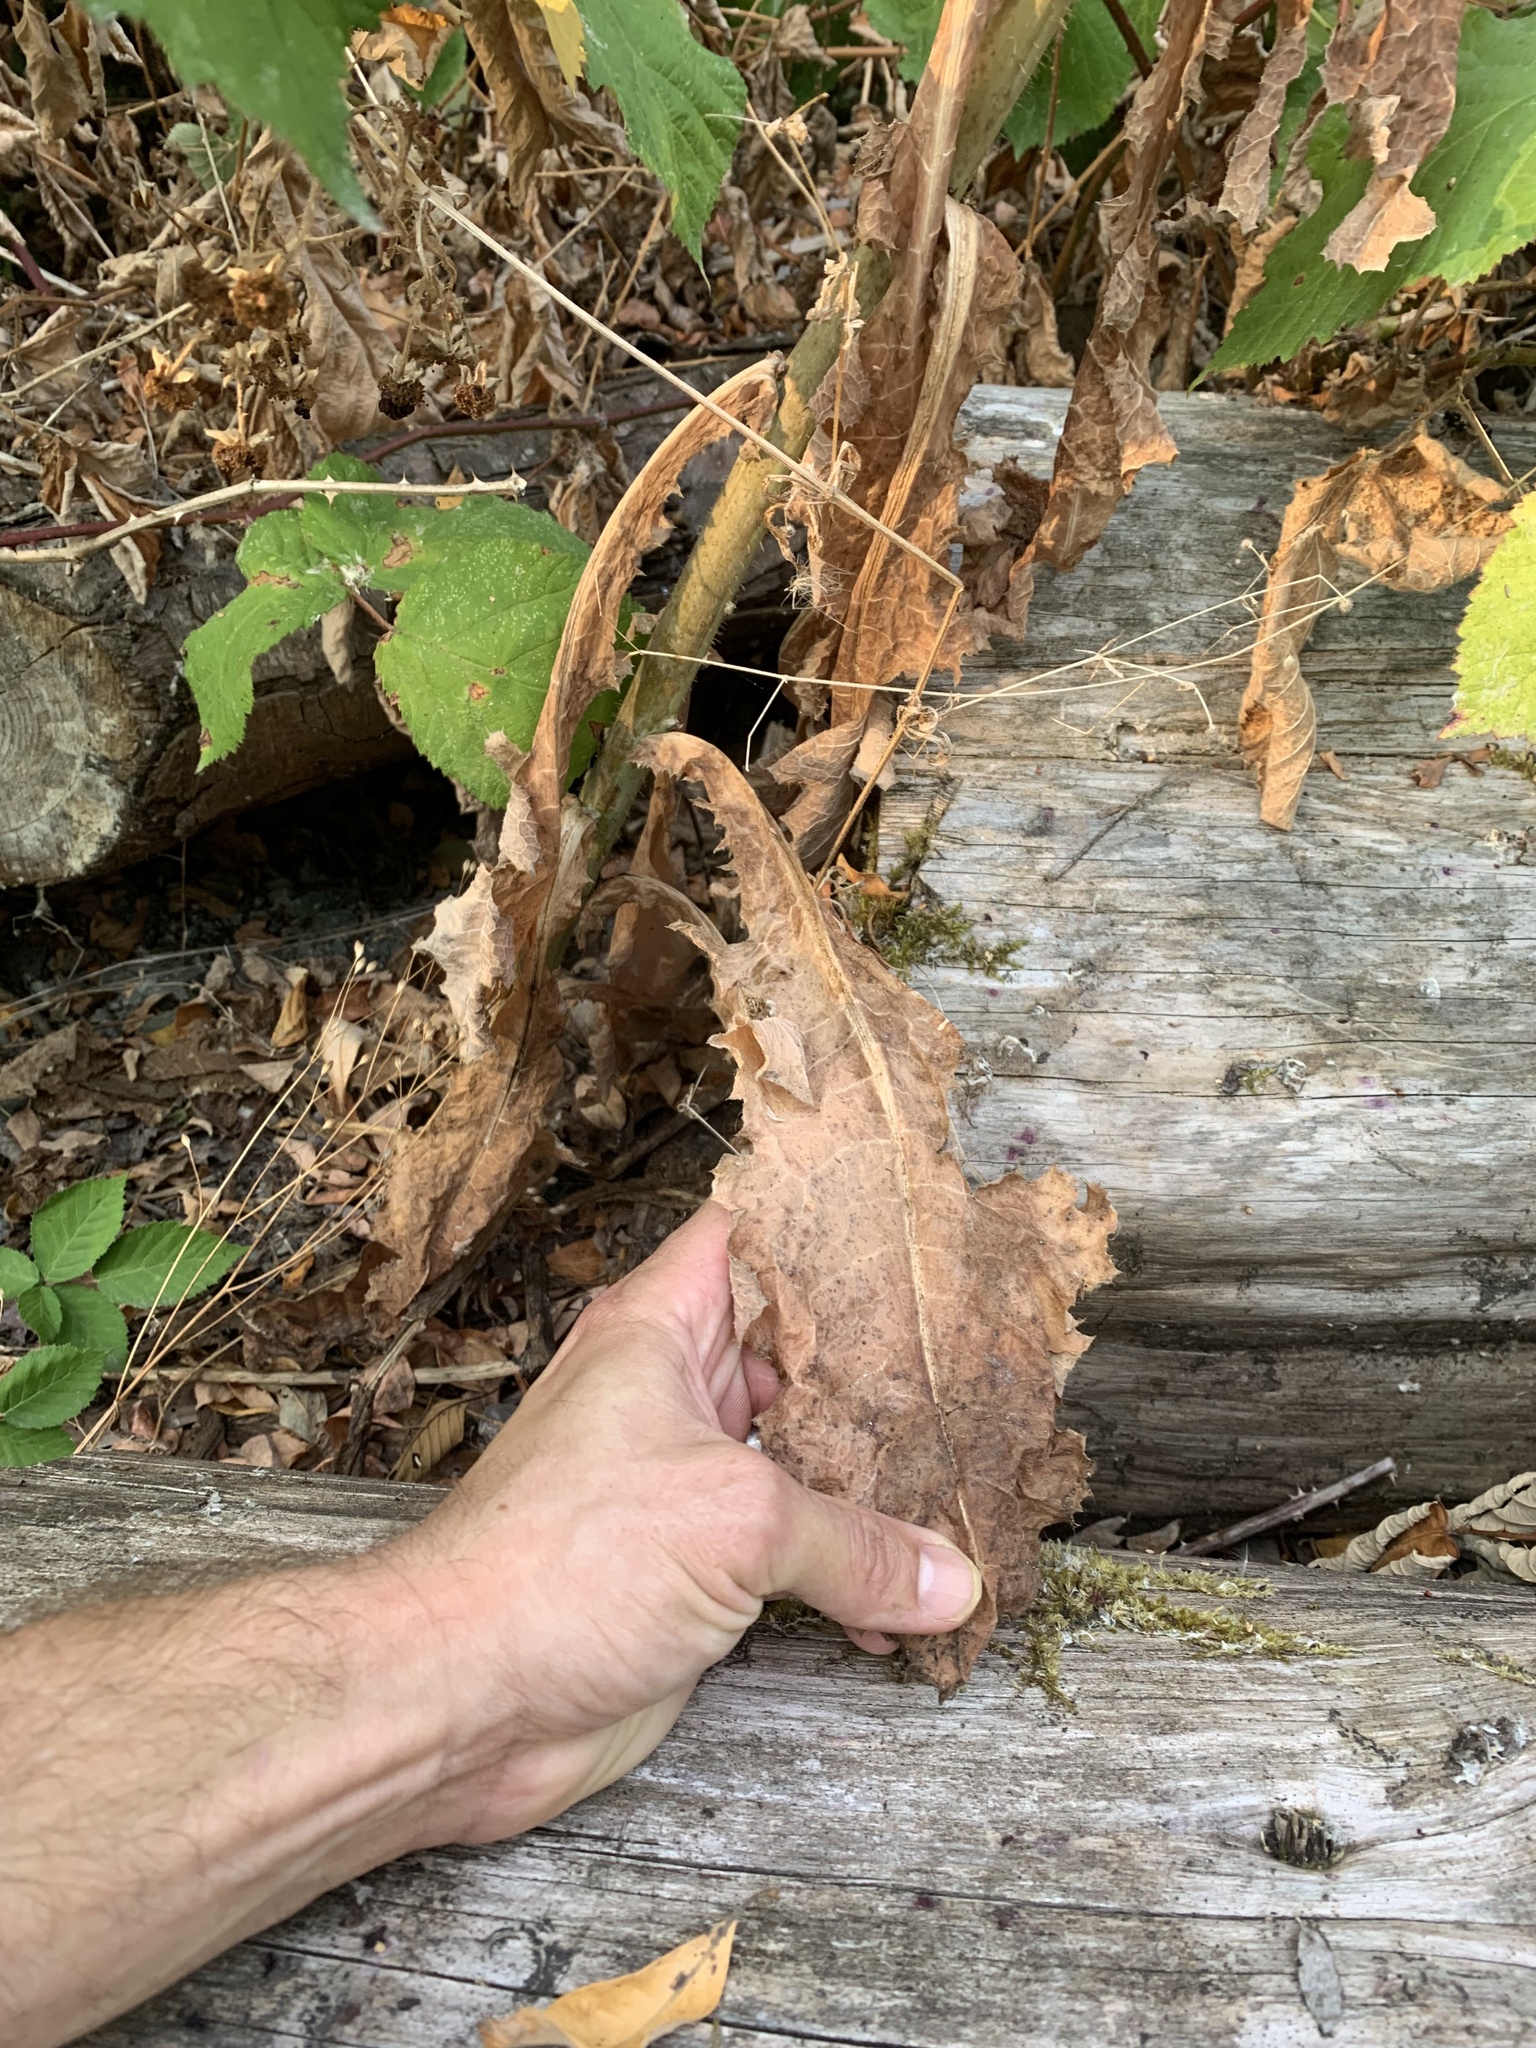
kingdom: Plantae
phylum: Tracheophyta
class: Magnoliopsida
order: Asterales
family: Asteraceae
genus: Lactuca
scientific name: Lactuca virosa
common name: Great lettuce
